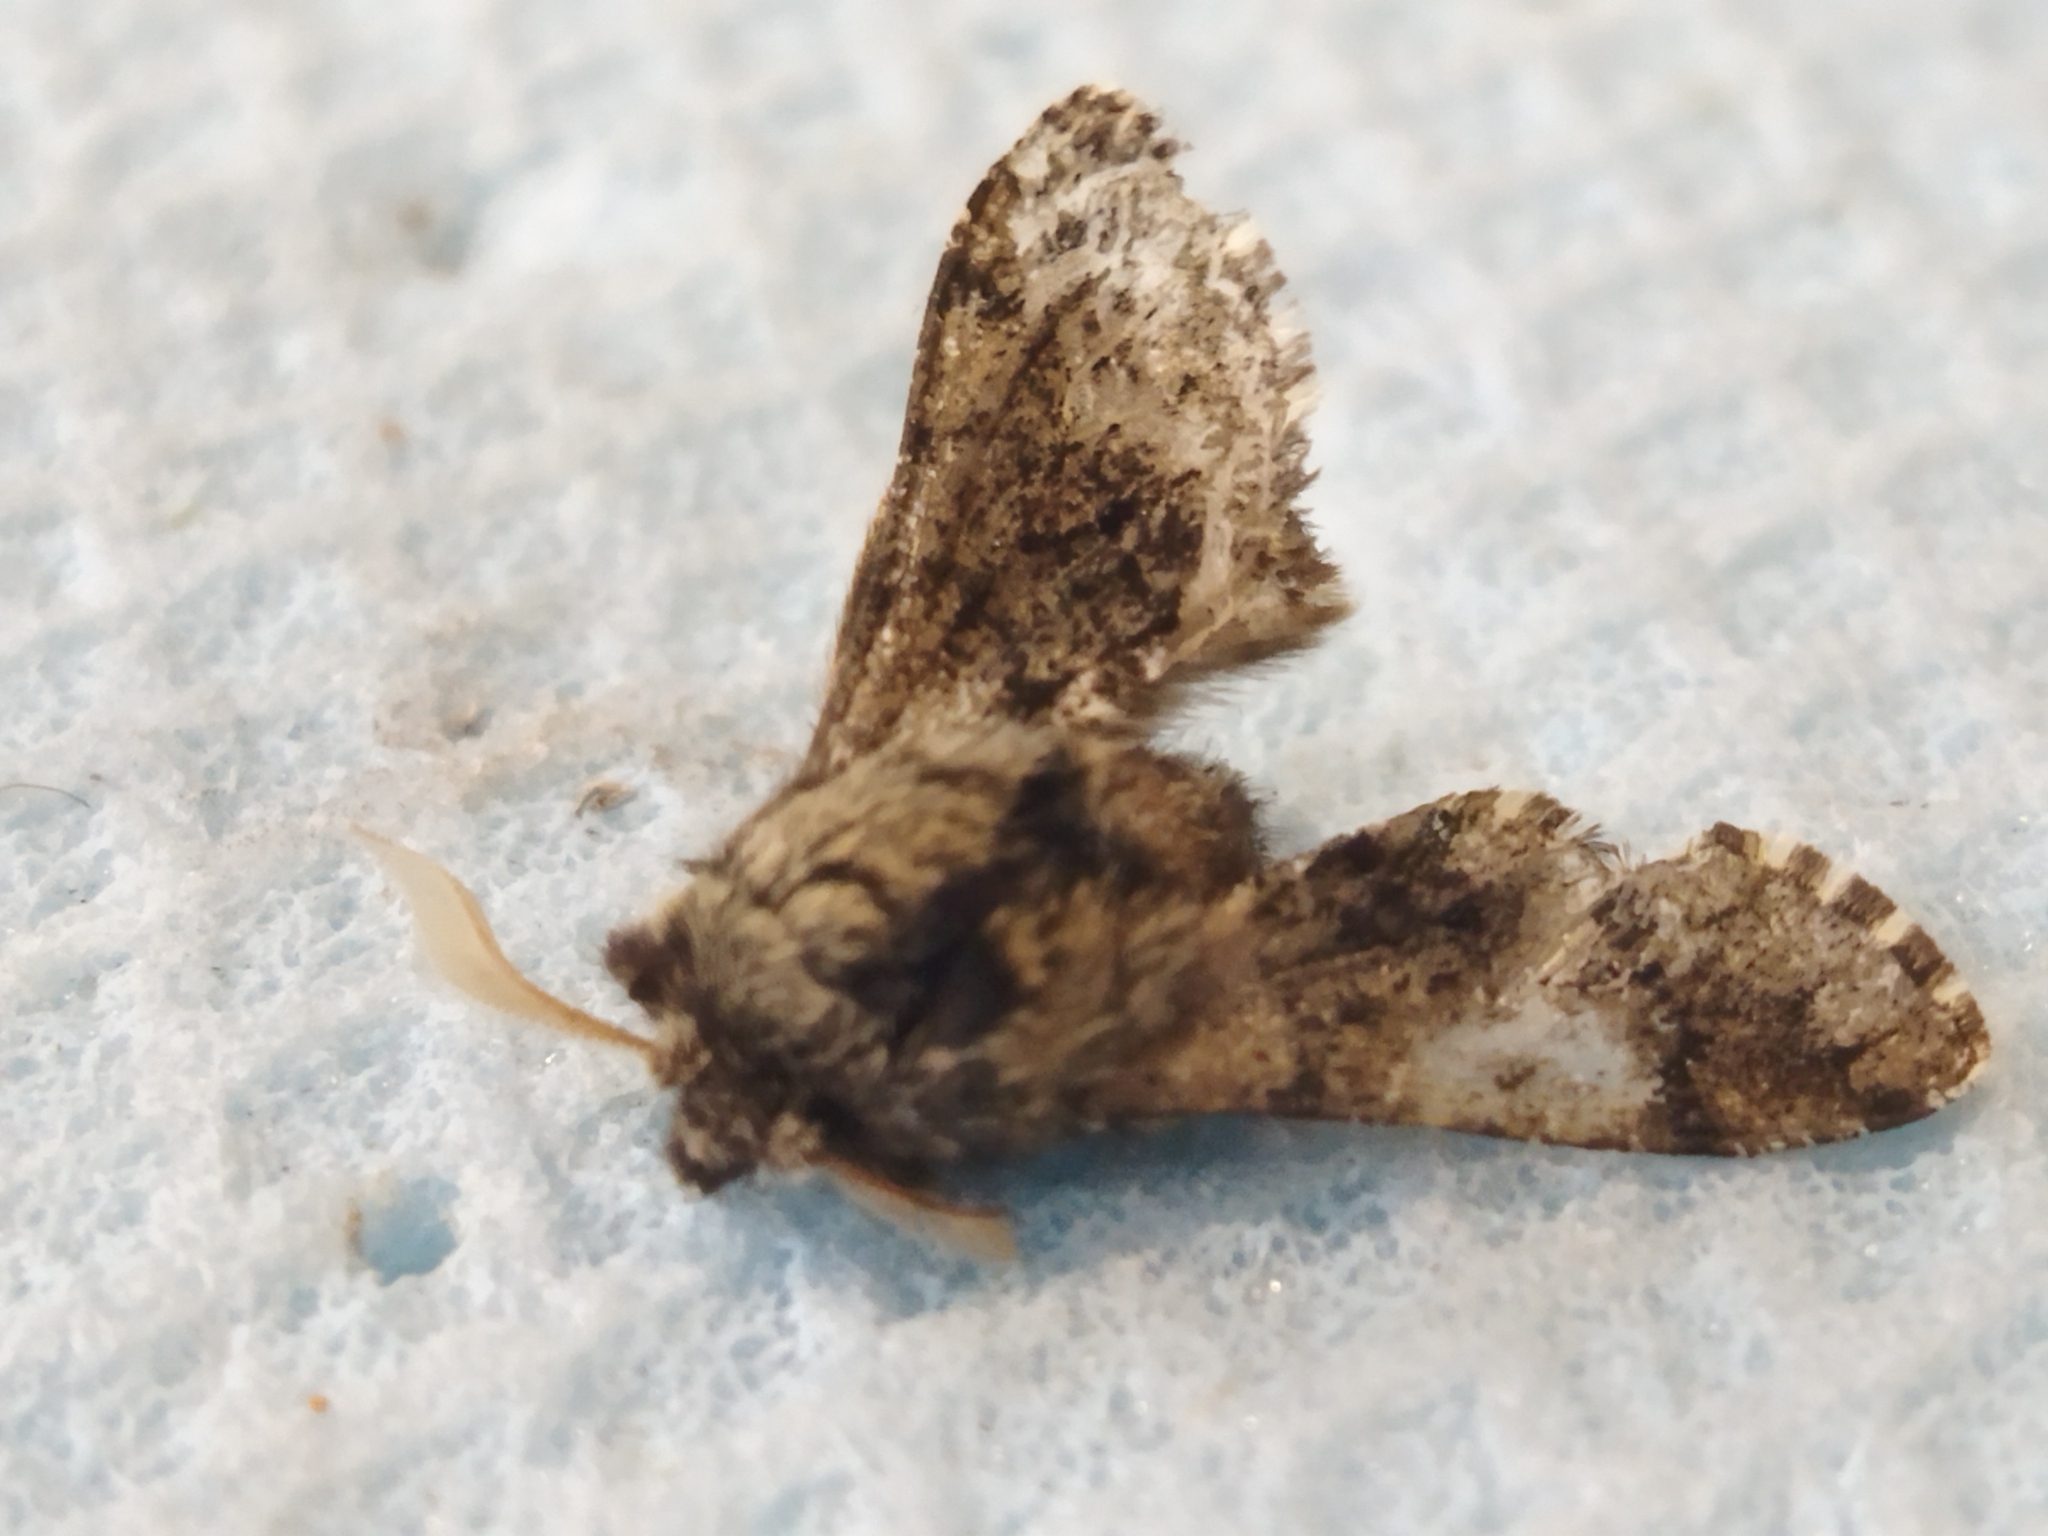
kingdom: Animalia
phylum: Arthropoda
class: Insecta
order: Lepidoptera
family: Geometridae
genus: Apocheima
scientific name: Apocheima hispidaria
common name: Small brindled beauty
